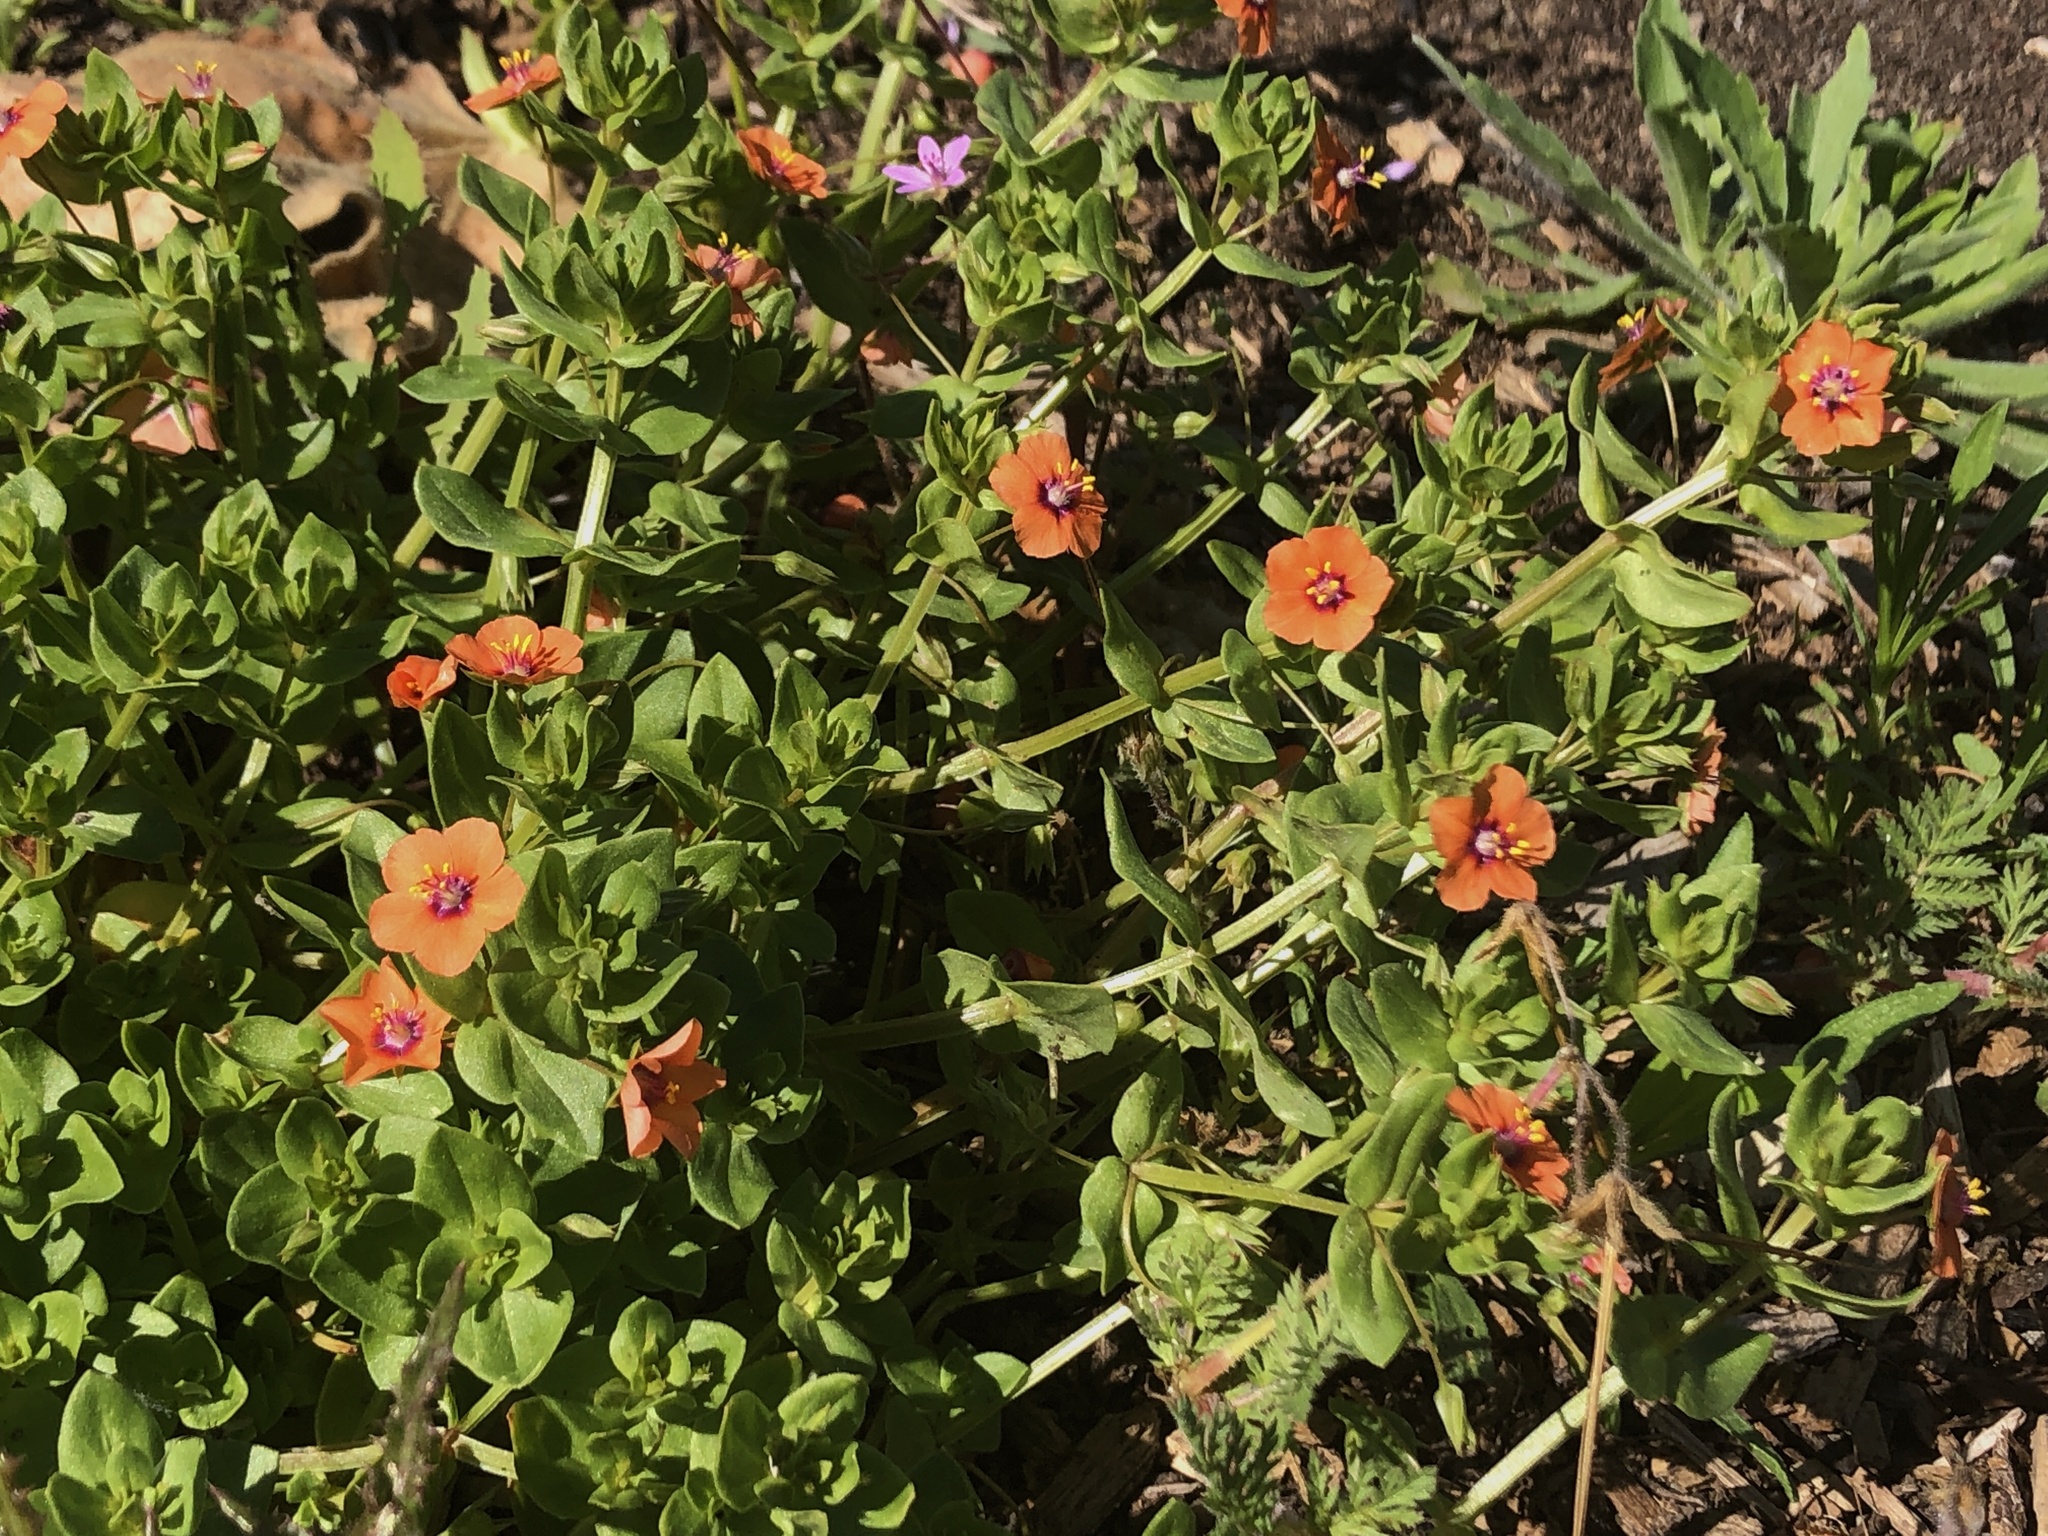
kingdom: Plantae
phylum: Tracheophyta
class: Magnoliopsida
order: Ericales
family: Primulaceae
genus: Lysimachia
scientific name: Lysimachia arvensis
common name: Scarlet pimpernel
